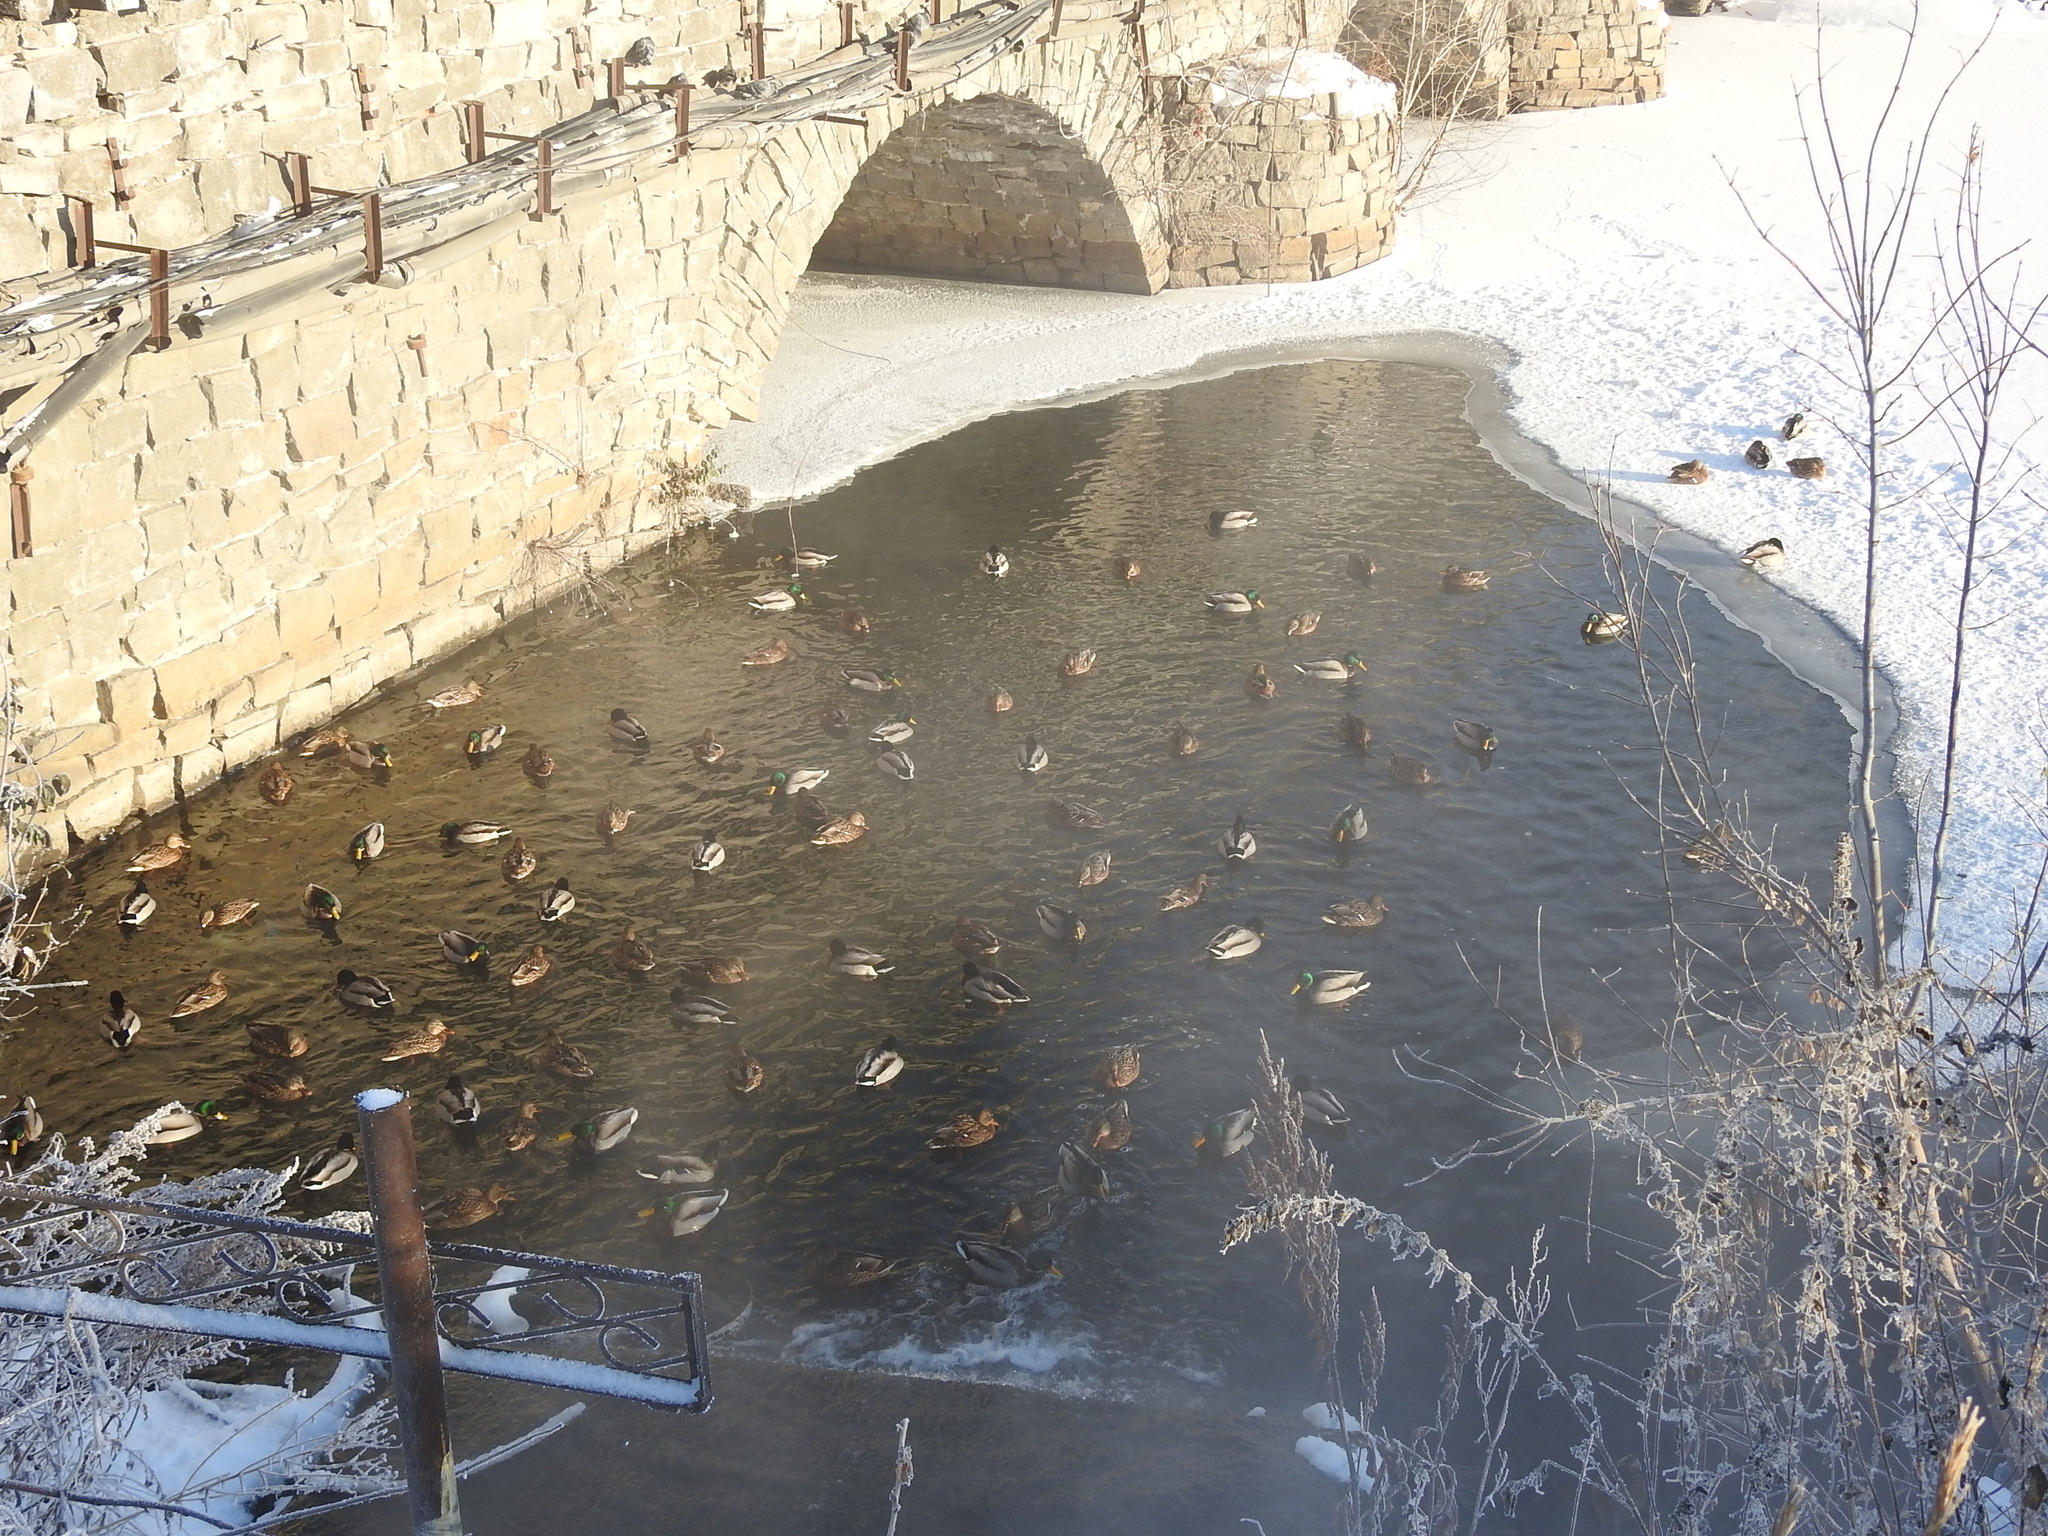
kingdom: Animalia
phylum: Chordata
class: Aves
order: Anseriformes
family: Anatidae
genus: Anas
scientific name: Anas platyrhynchos
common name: Mallard
